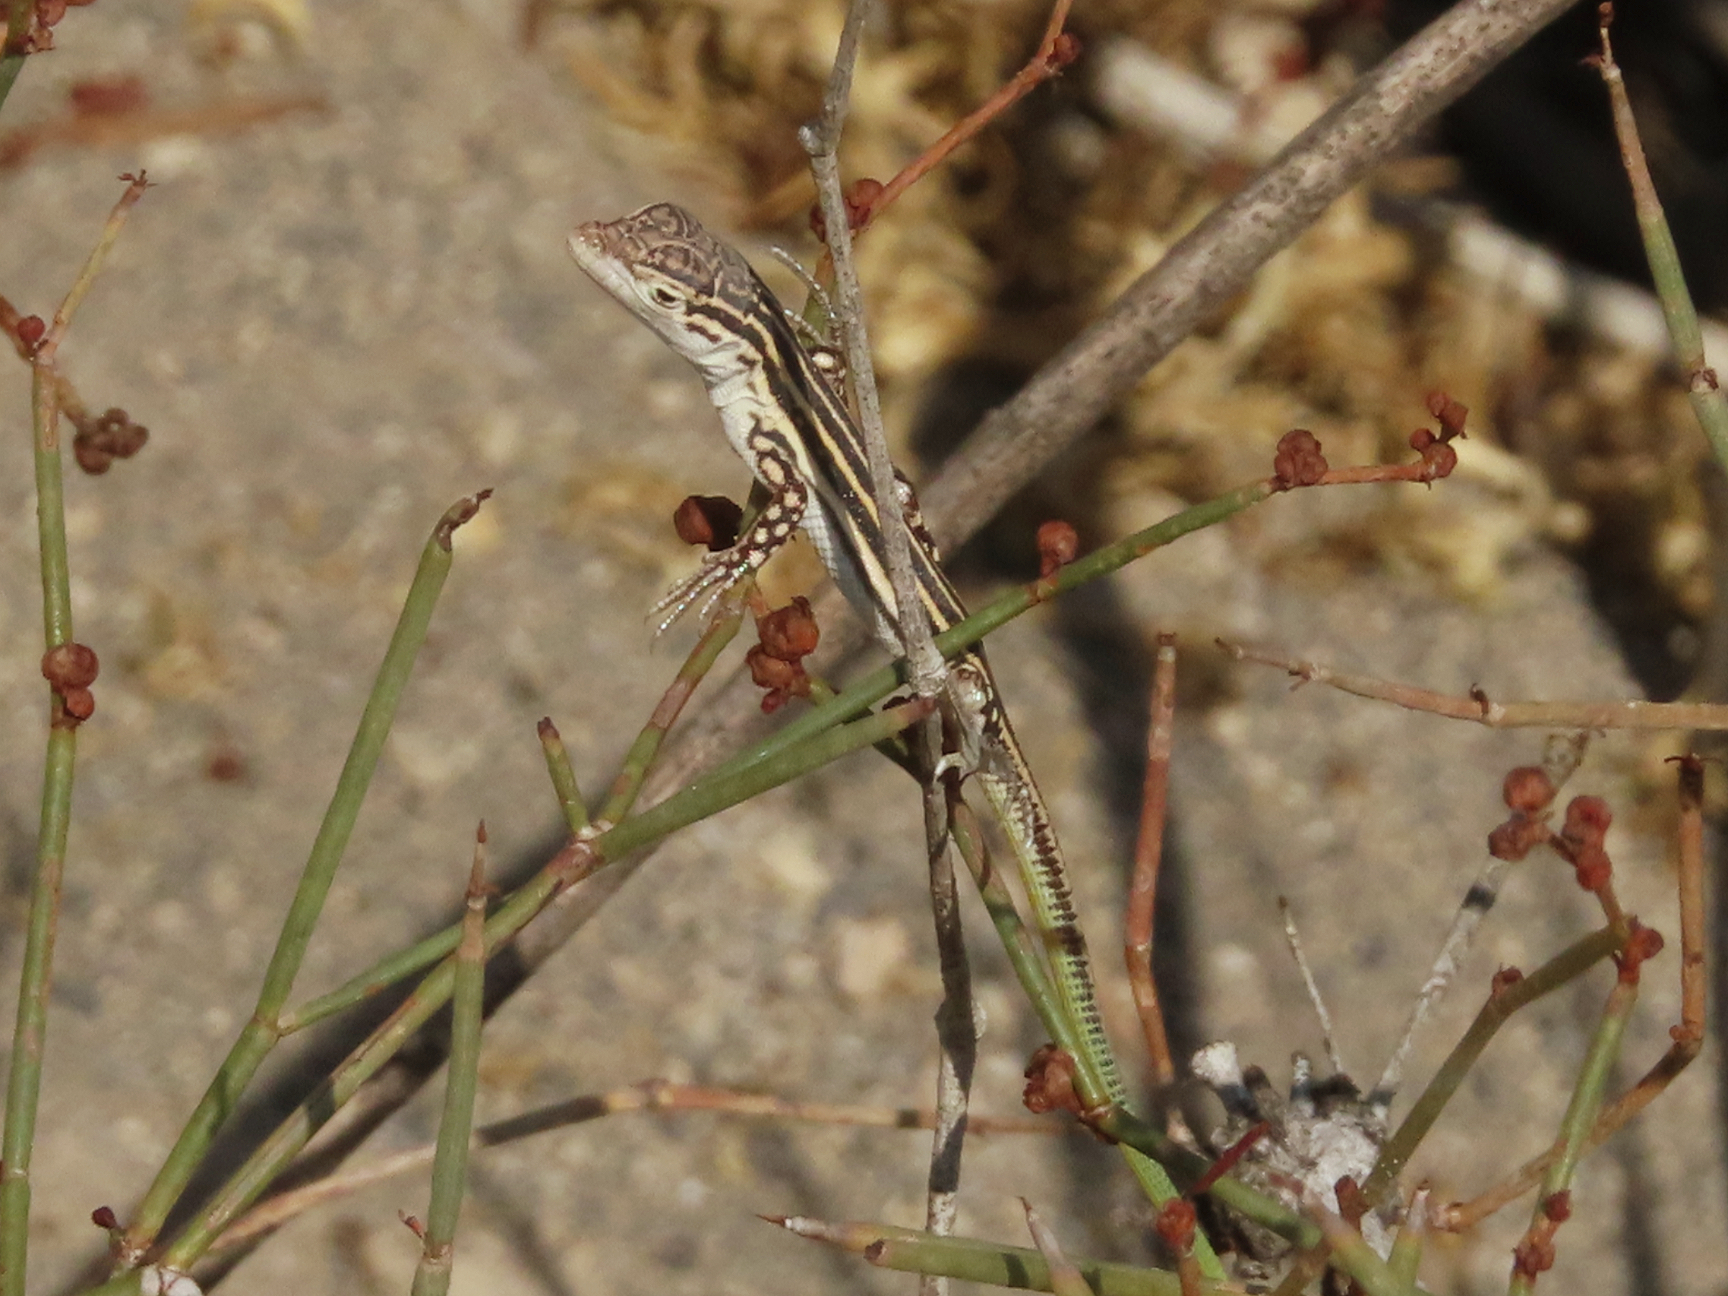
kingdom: Animalia
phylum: Chordata
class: Squamata
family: Lacertidae
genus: Eremias
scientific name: Eremias pleskei
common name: Pleske's racerunner
